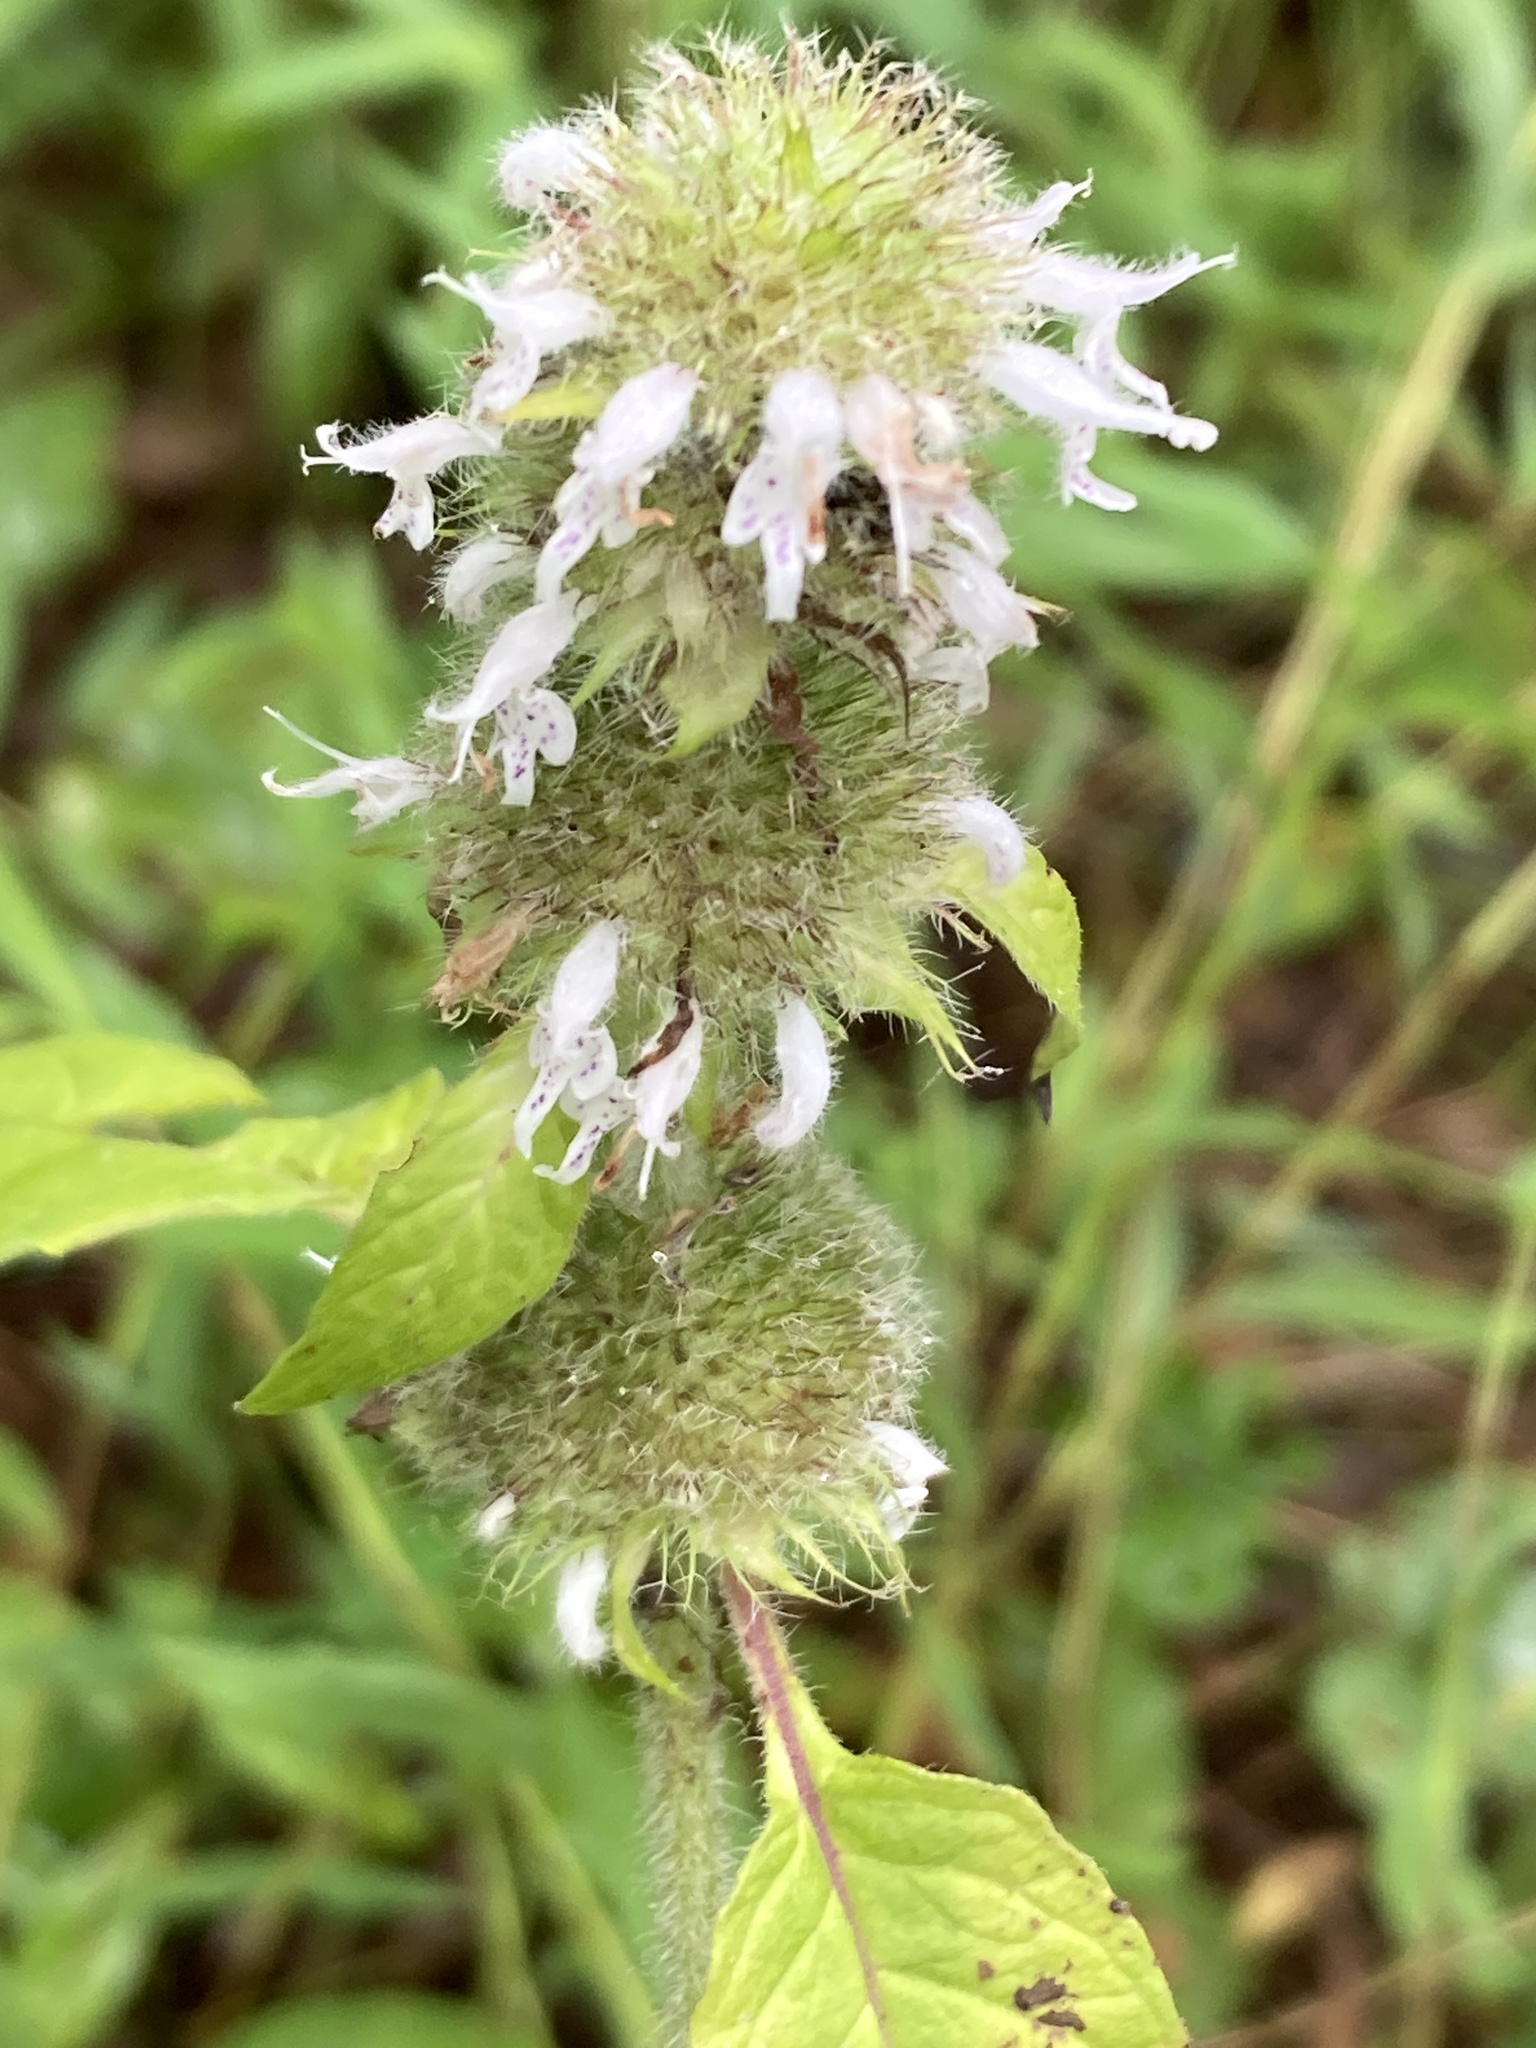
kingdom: Plantae
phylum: Tracheophyta
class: Magnoliopsida
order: Lamiales
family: Lamiaceae
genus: Blephilia
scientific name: Blephilia hirsuta
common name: Hairy blephilia
